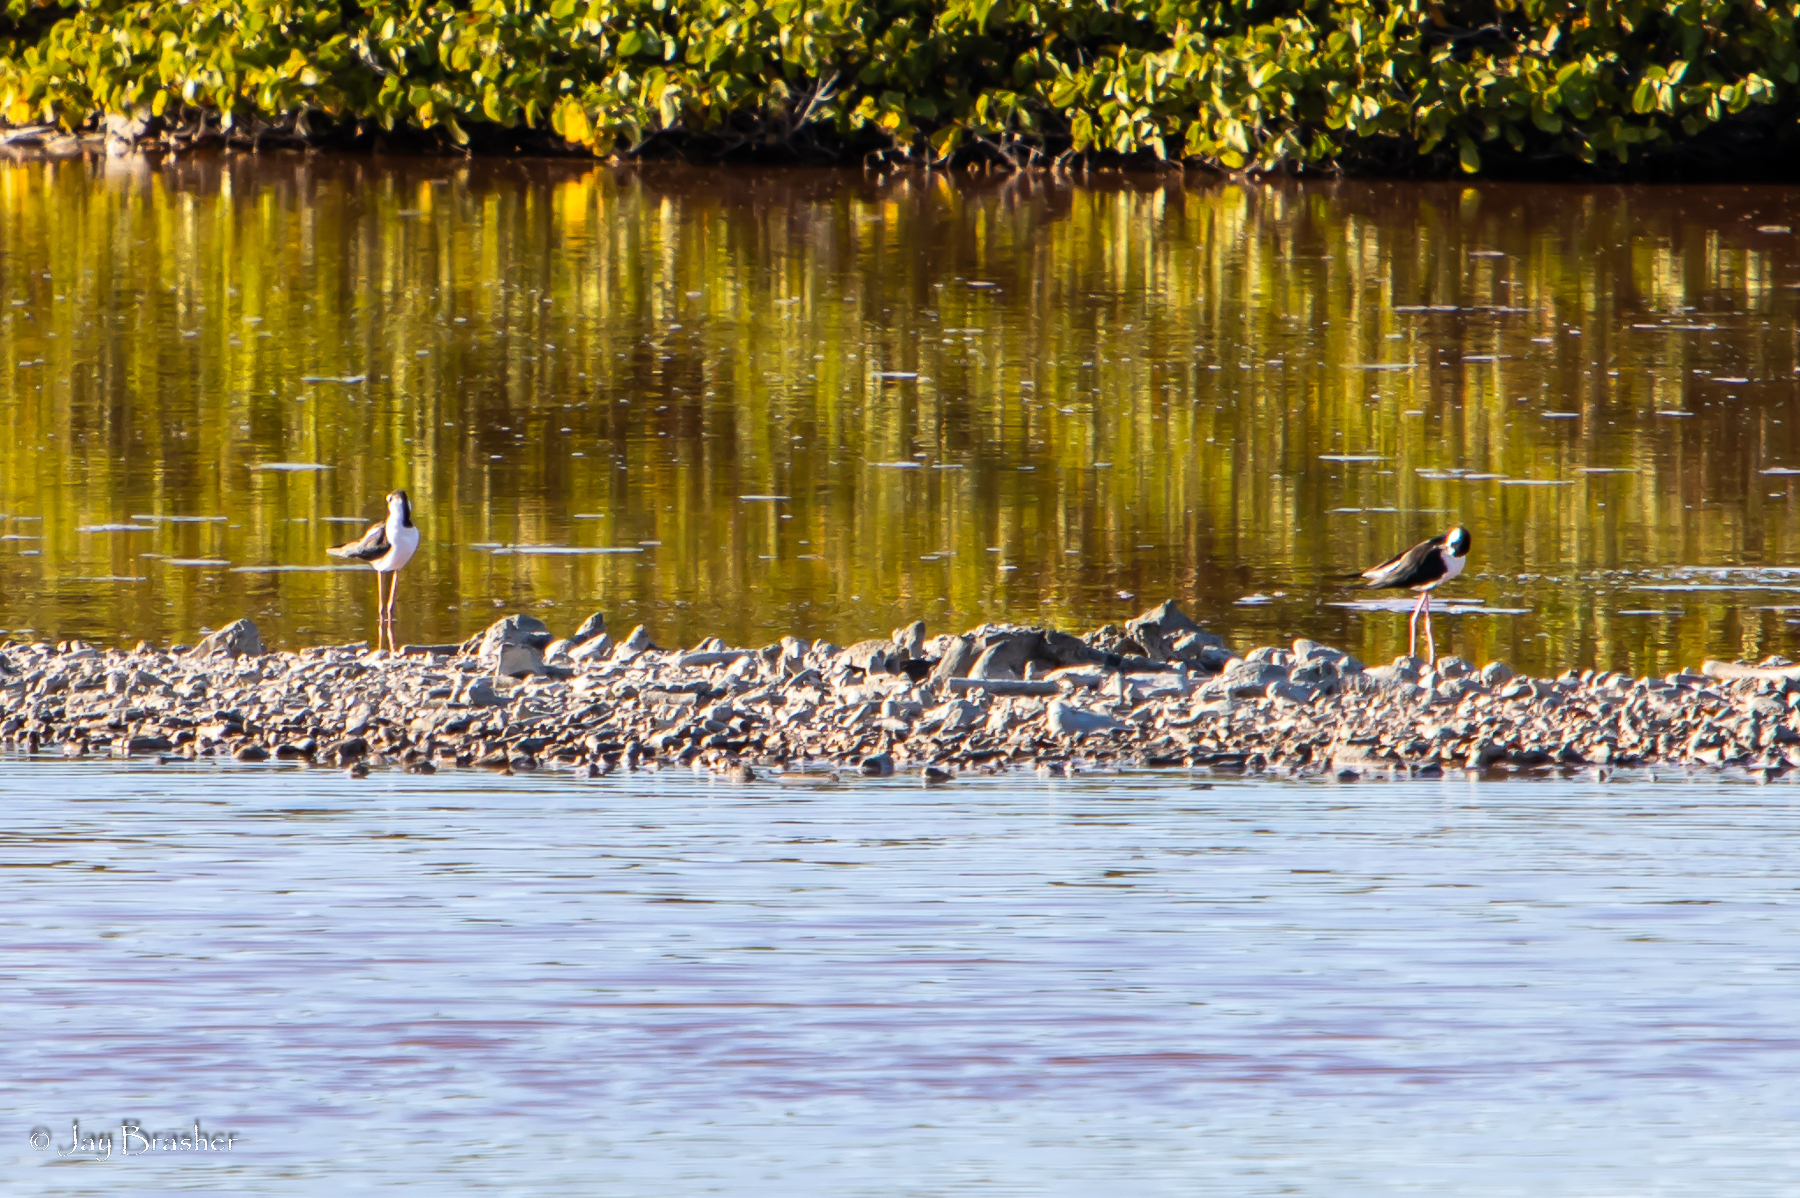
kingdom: Animalia
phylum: Chordata
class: Aves
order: Charadriiformes
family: Recurvirostridae
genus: Himantopus
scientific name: Himantopus mexicanus
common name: Black-necked stilt
